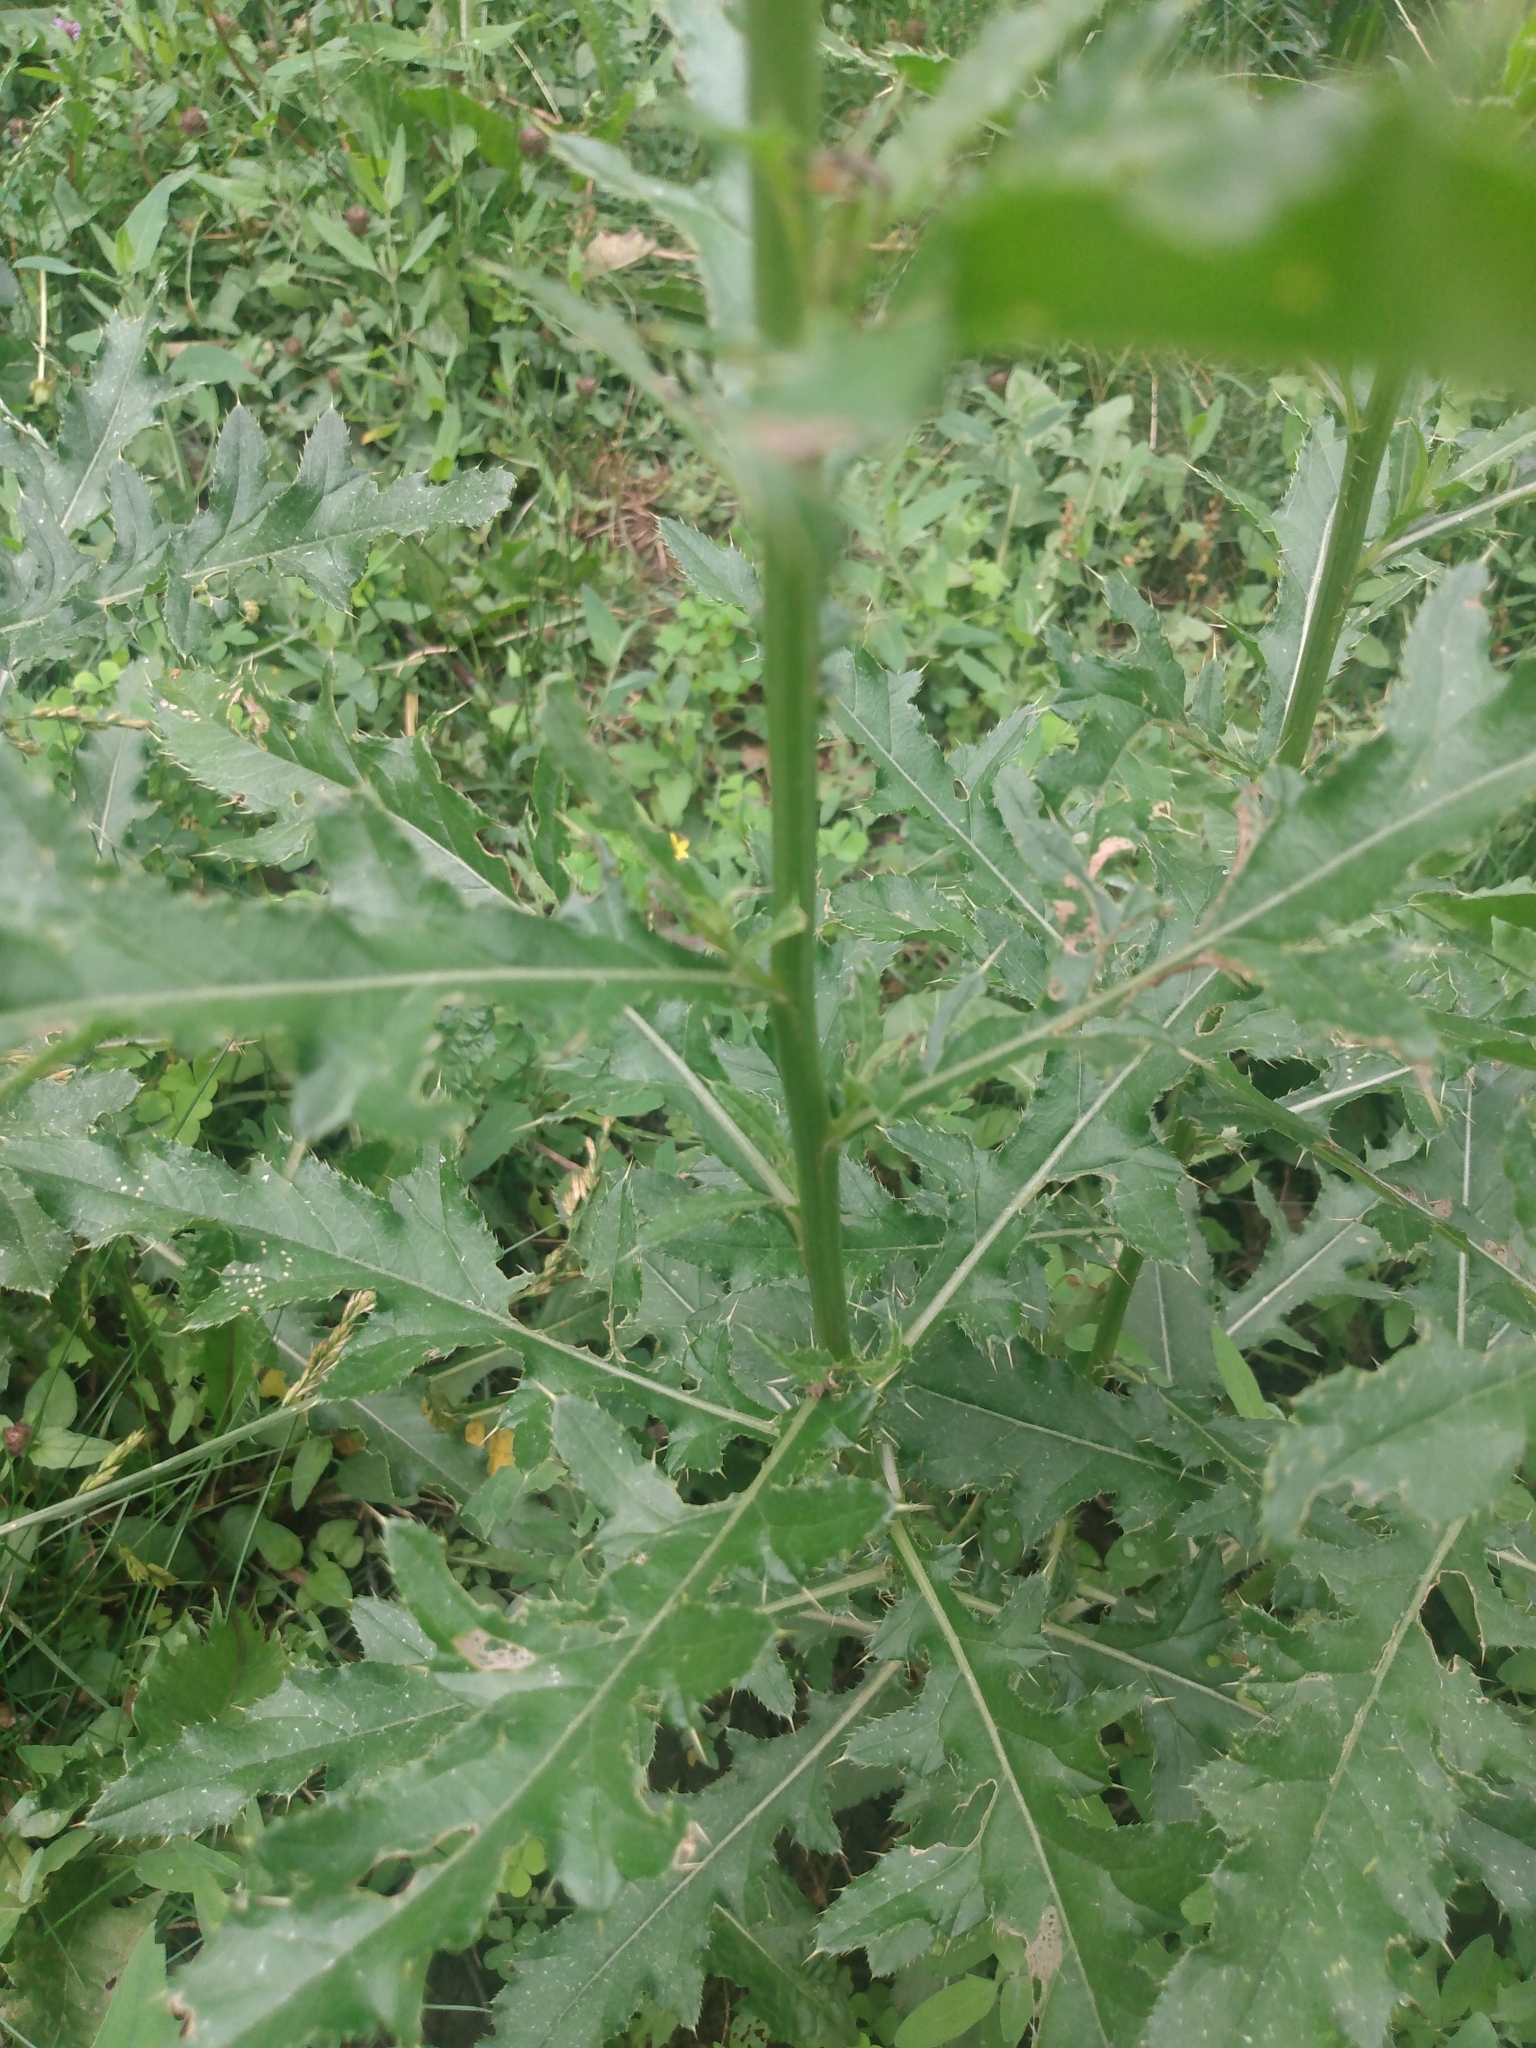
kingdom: Plantae
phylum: Tracheophyta
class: Magnoliopsida
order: Asterales
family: Asteraceae
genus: Cirsium
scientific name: Cirsium arvense
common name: Creeping thistle
